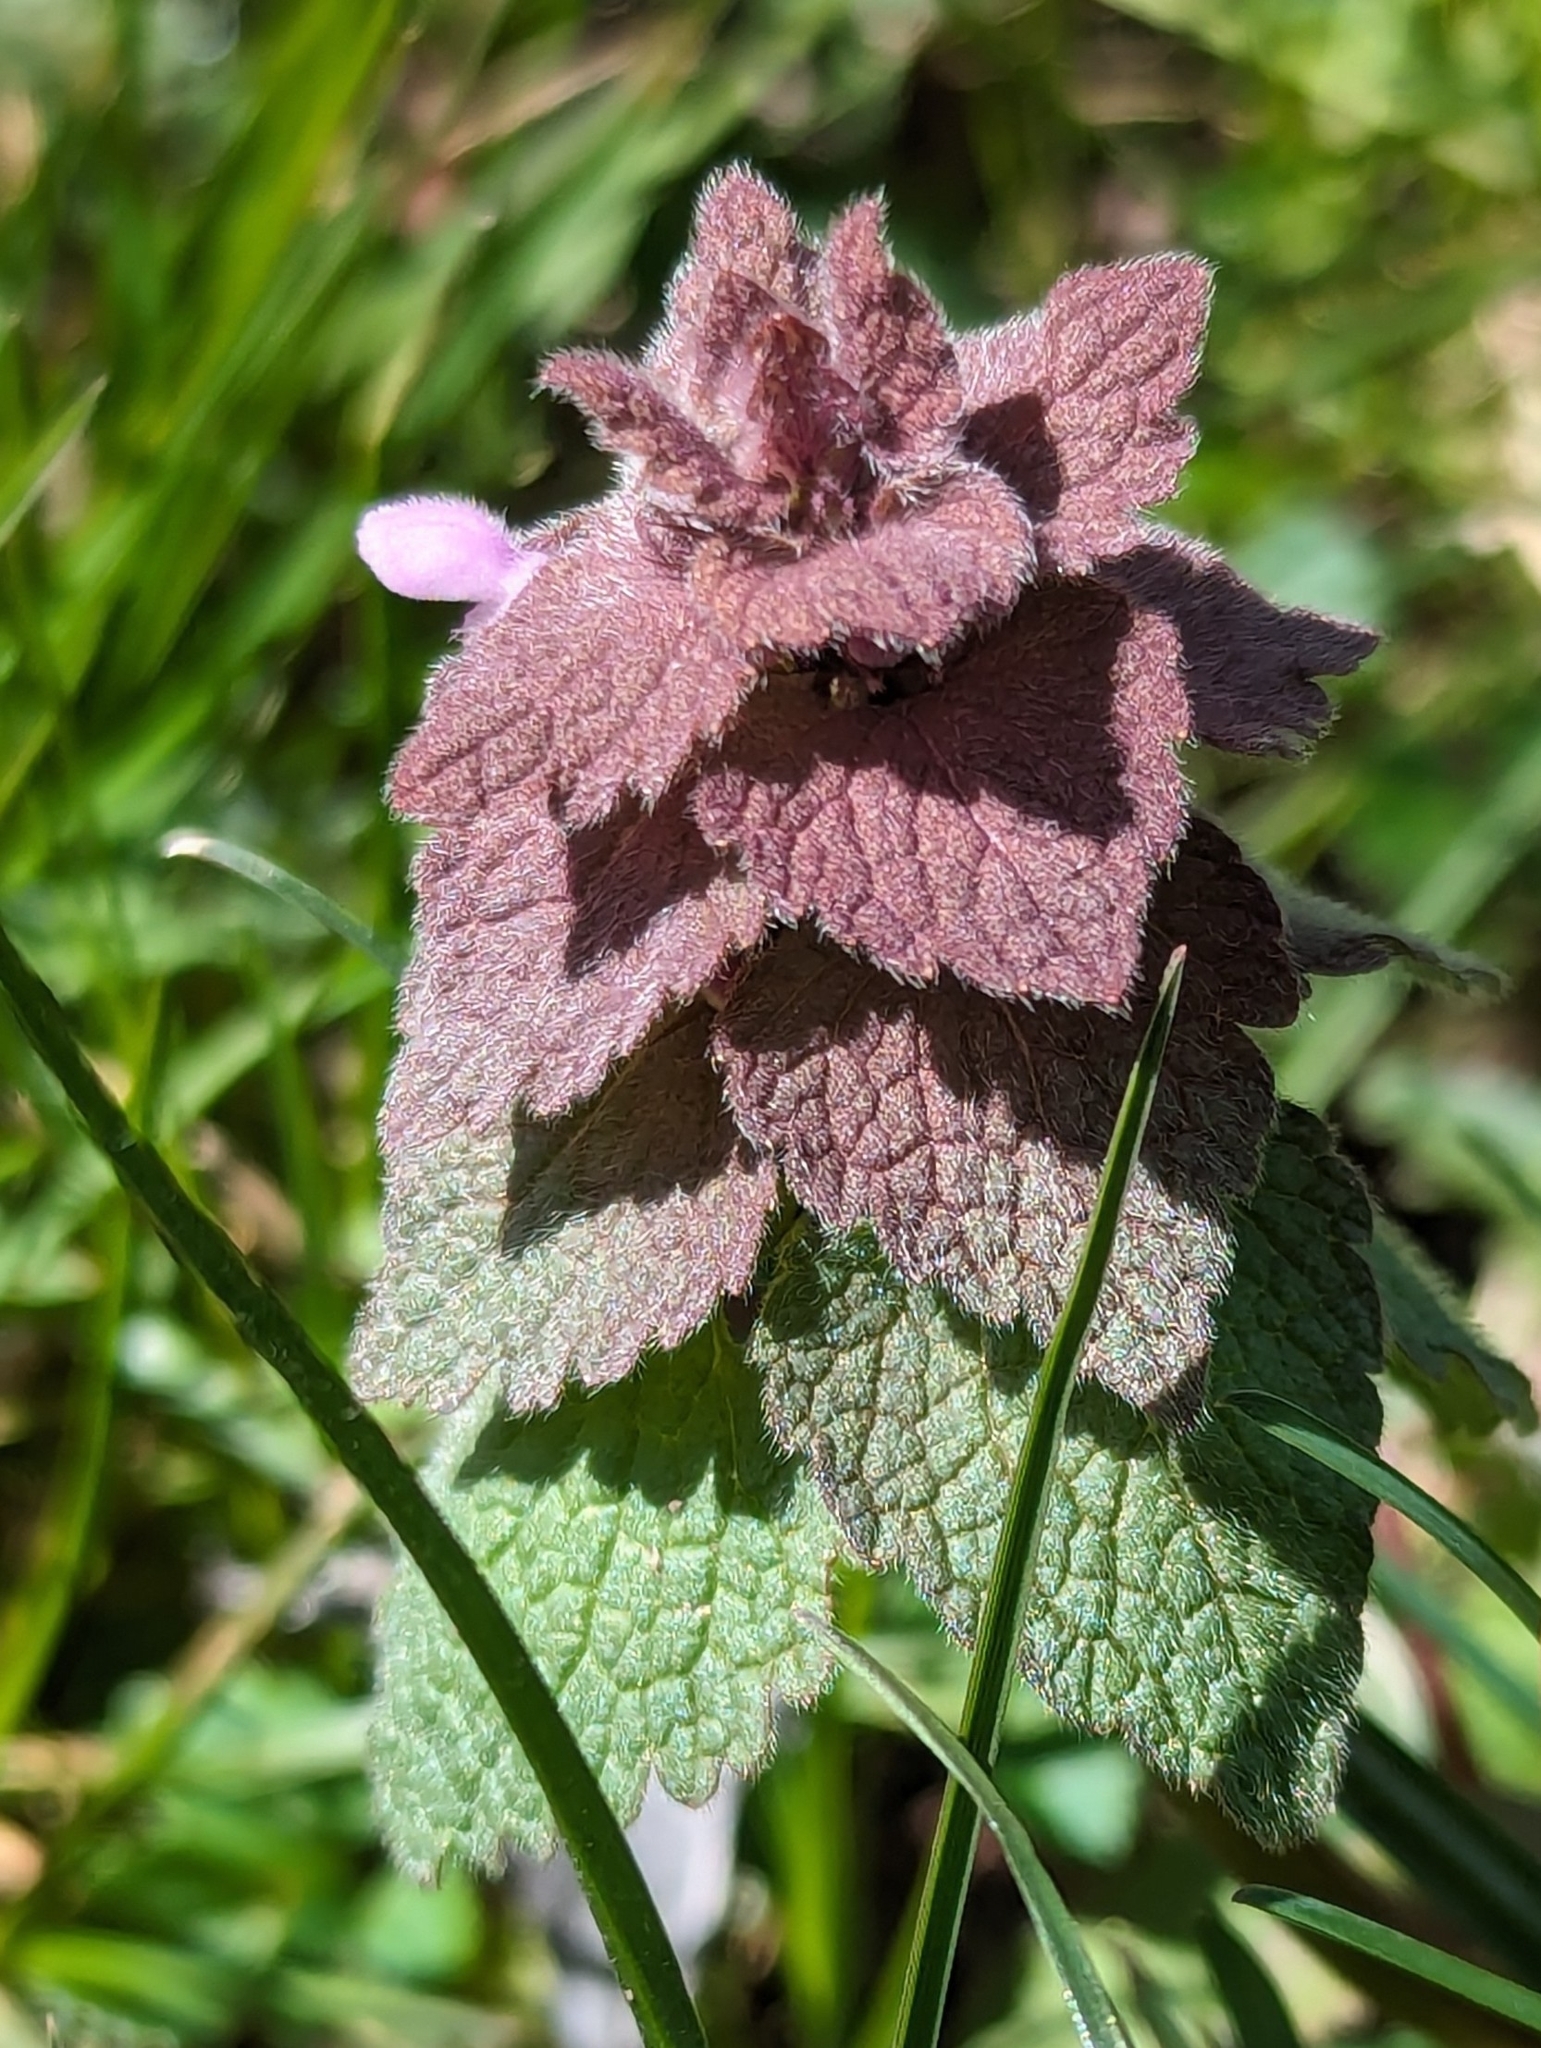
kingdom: Plantae
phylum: Tracheophyta
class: Magnoliopsida
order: Lamiales
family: Lamiaceae
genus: Lamium
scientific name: Lamium purpureum
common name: Red dead-nettle
